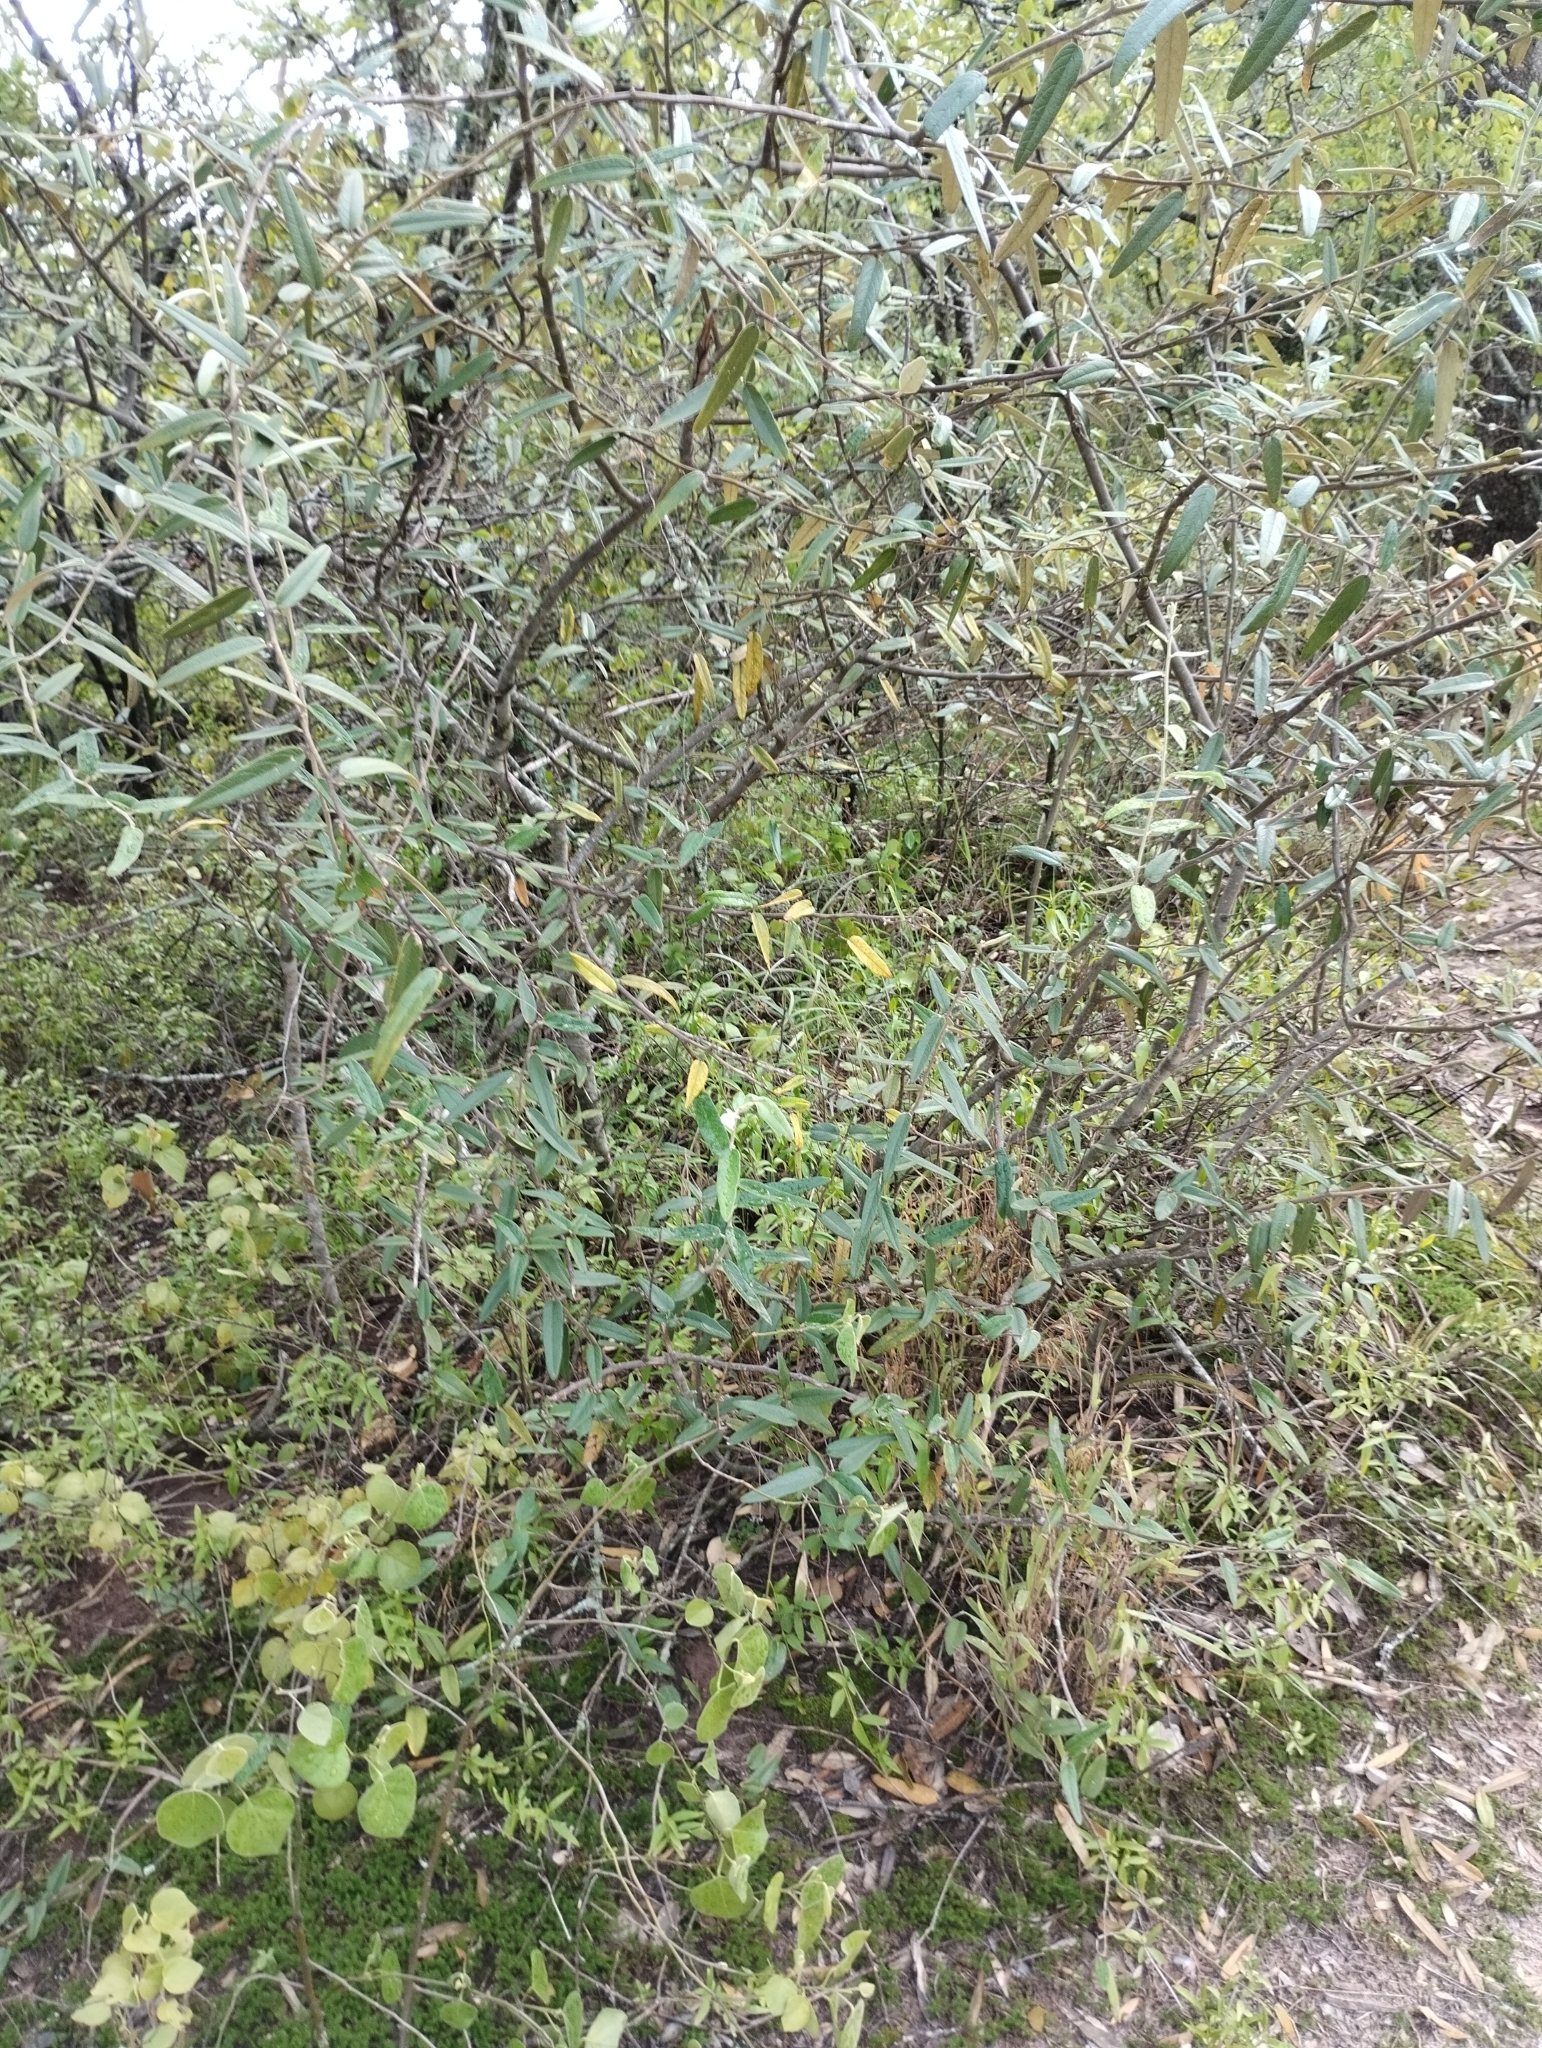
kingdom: Plantae
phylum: Tracheophyta
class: Magnoliopsida
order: Brassicales
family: Capparaceae
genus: Sarcotoxicum
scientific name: Sarcotoxicum salicifolium
